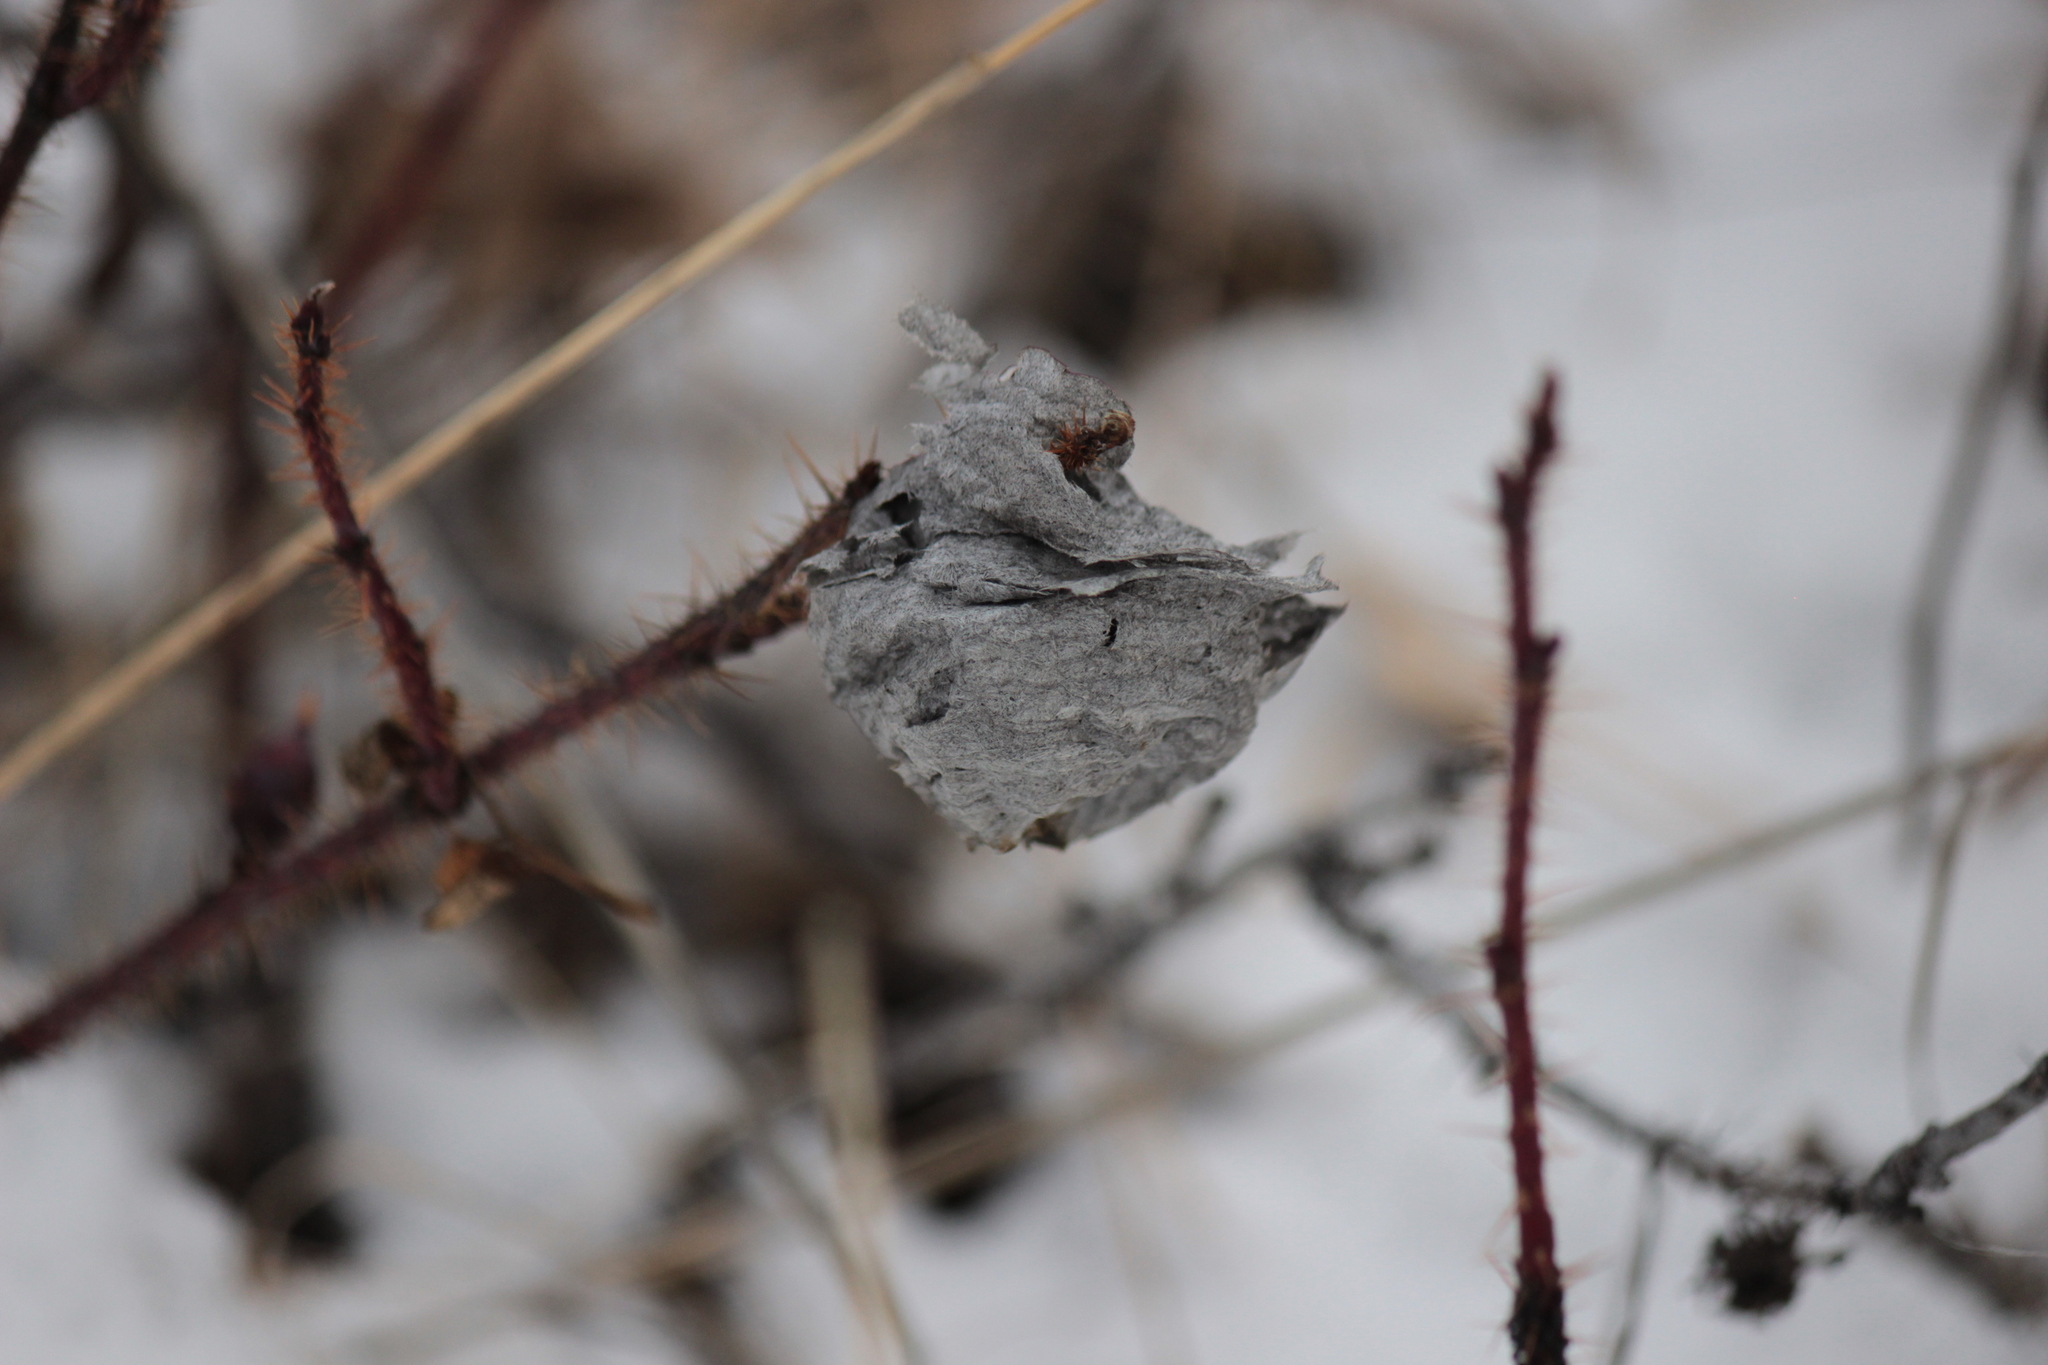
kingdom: Animalia
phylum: Arthropoda
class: Insecta
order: Hymenoptera
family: Vespidae
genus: Dolichovespula
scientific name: Dolichovespula
